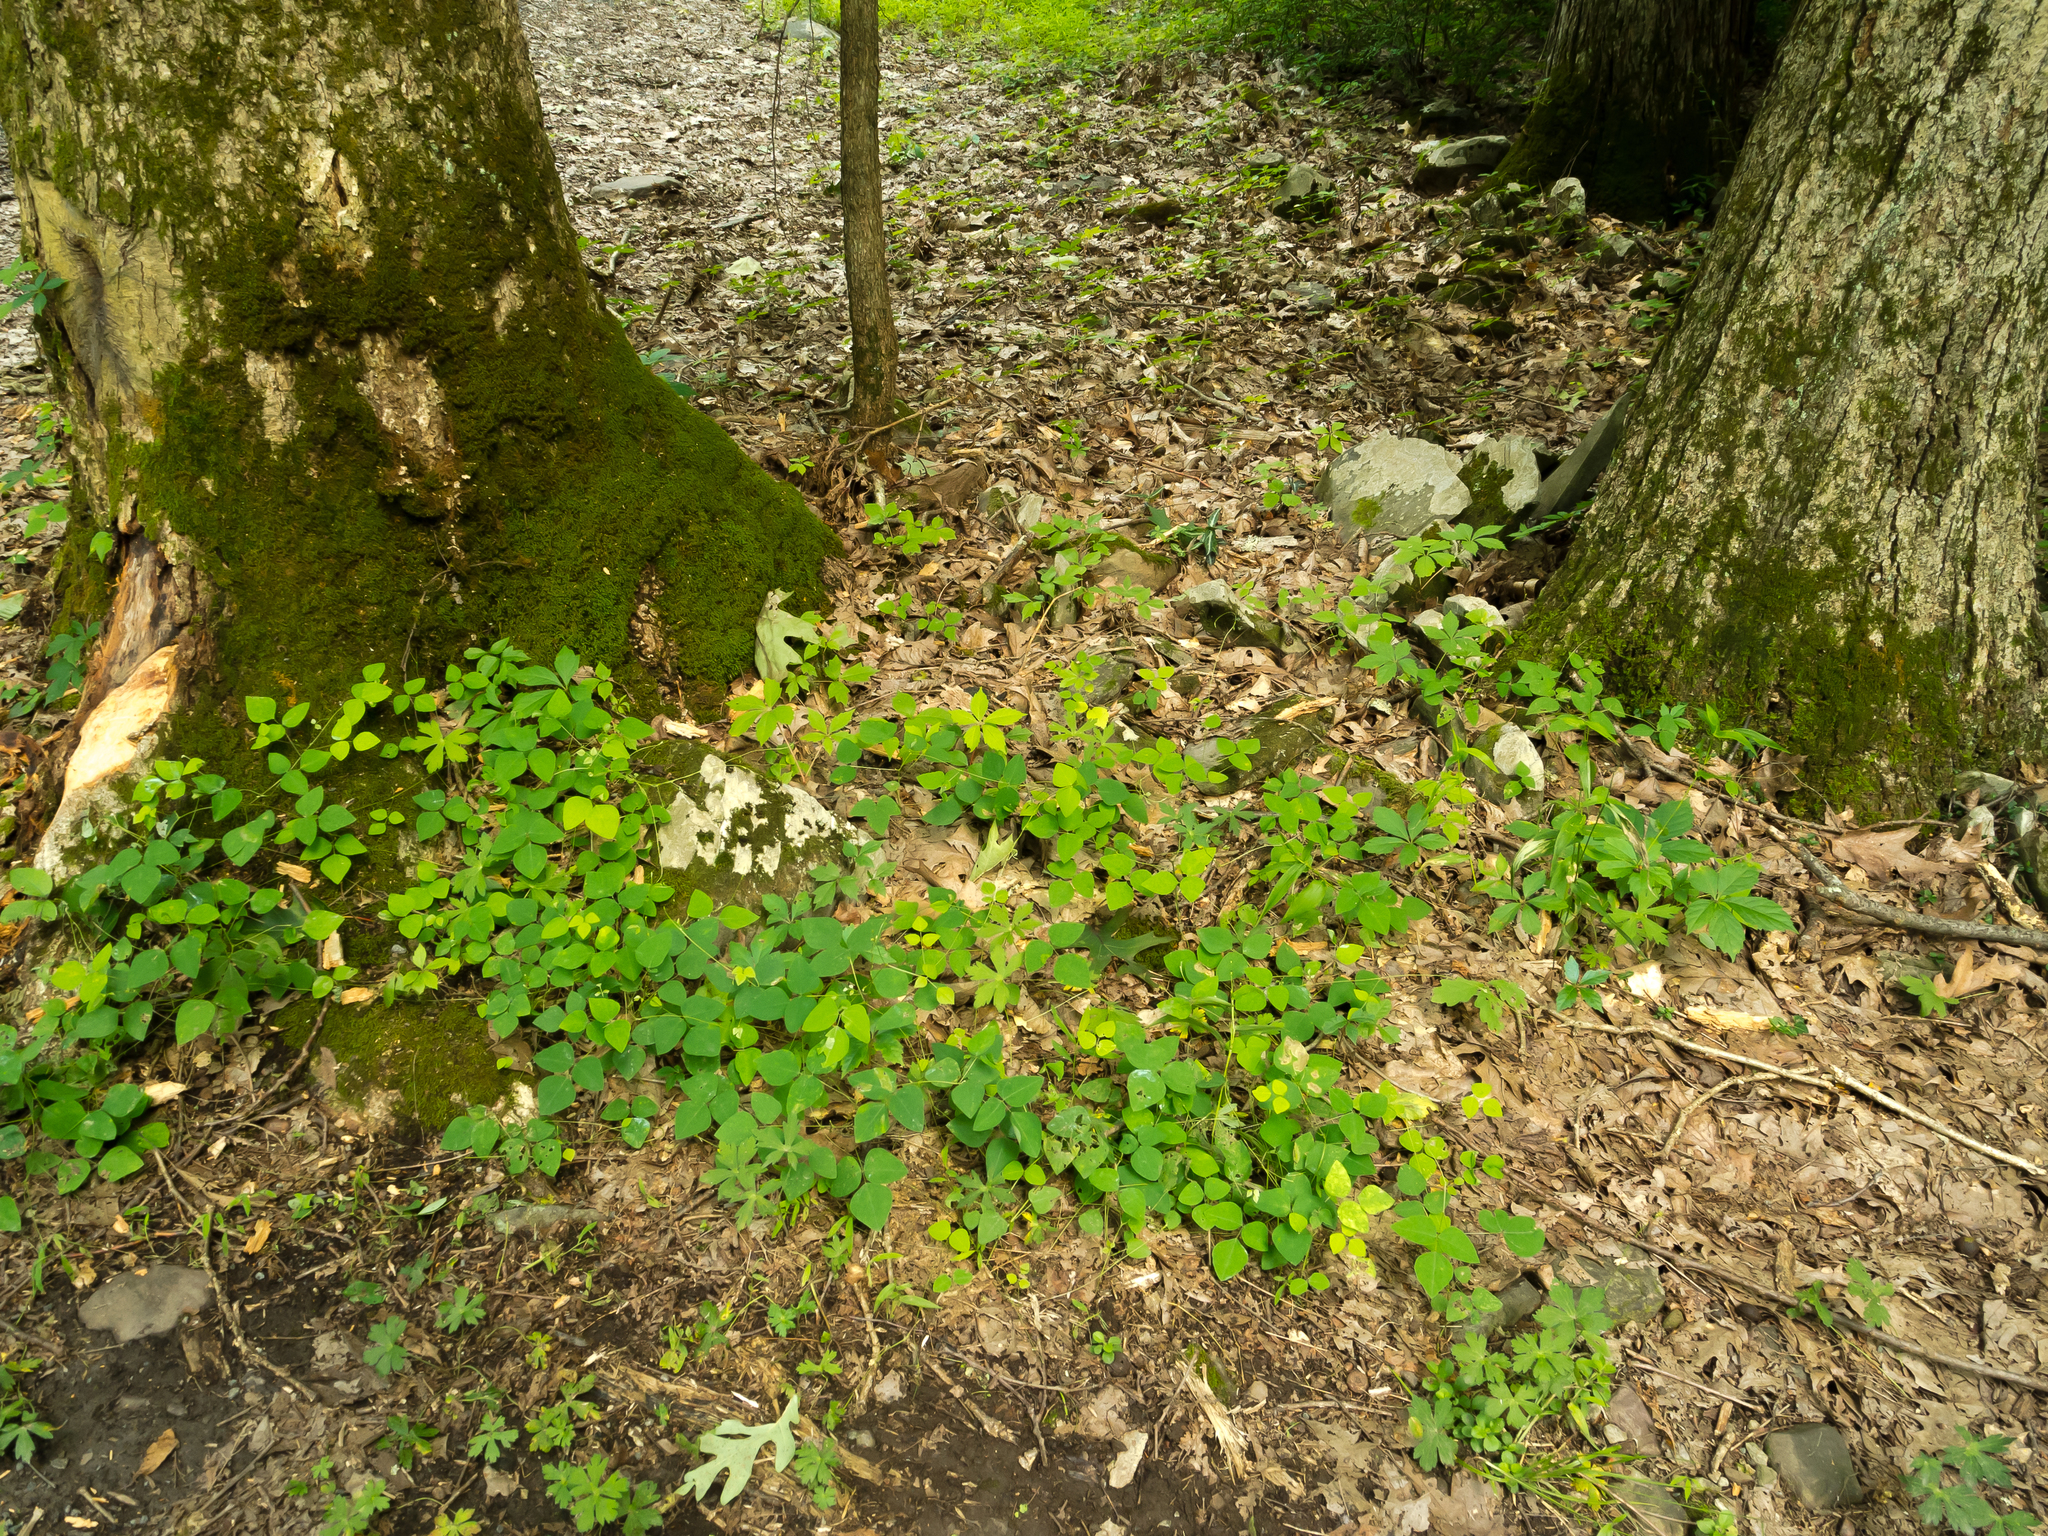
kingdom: Plantae
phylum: Tracheophyta
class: Magnoliopsida
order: Fabales
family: Fabaceae
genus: Amphicarpaea
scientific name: Amphicarpaea bracteata
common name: American hog peanut
